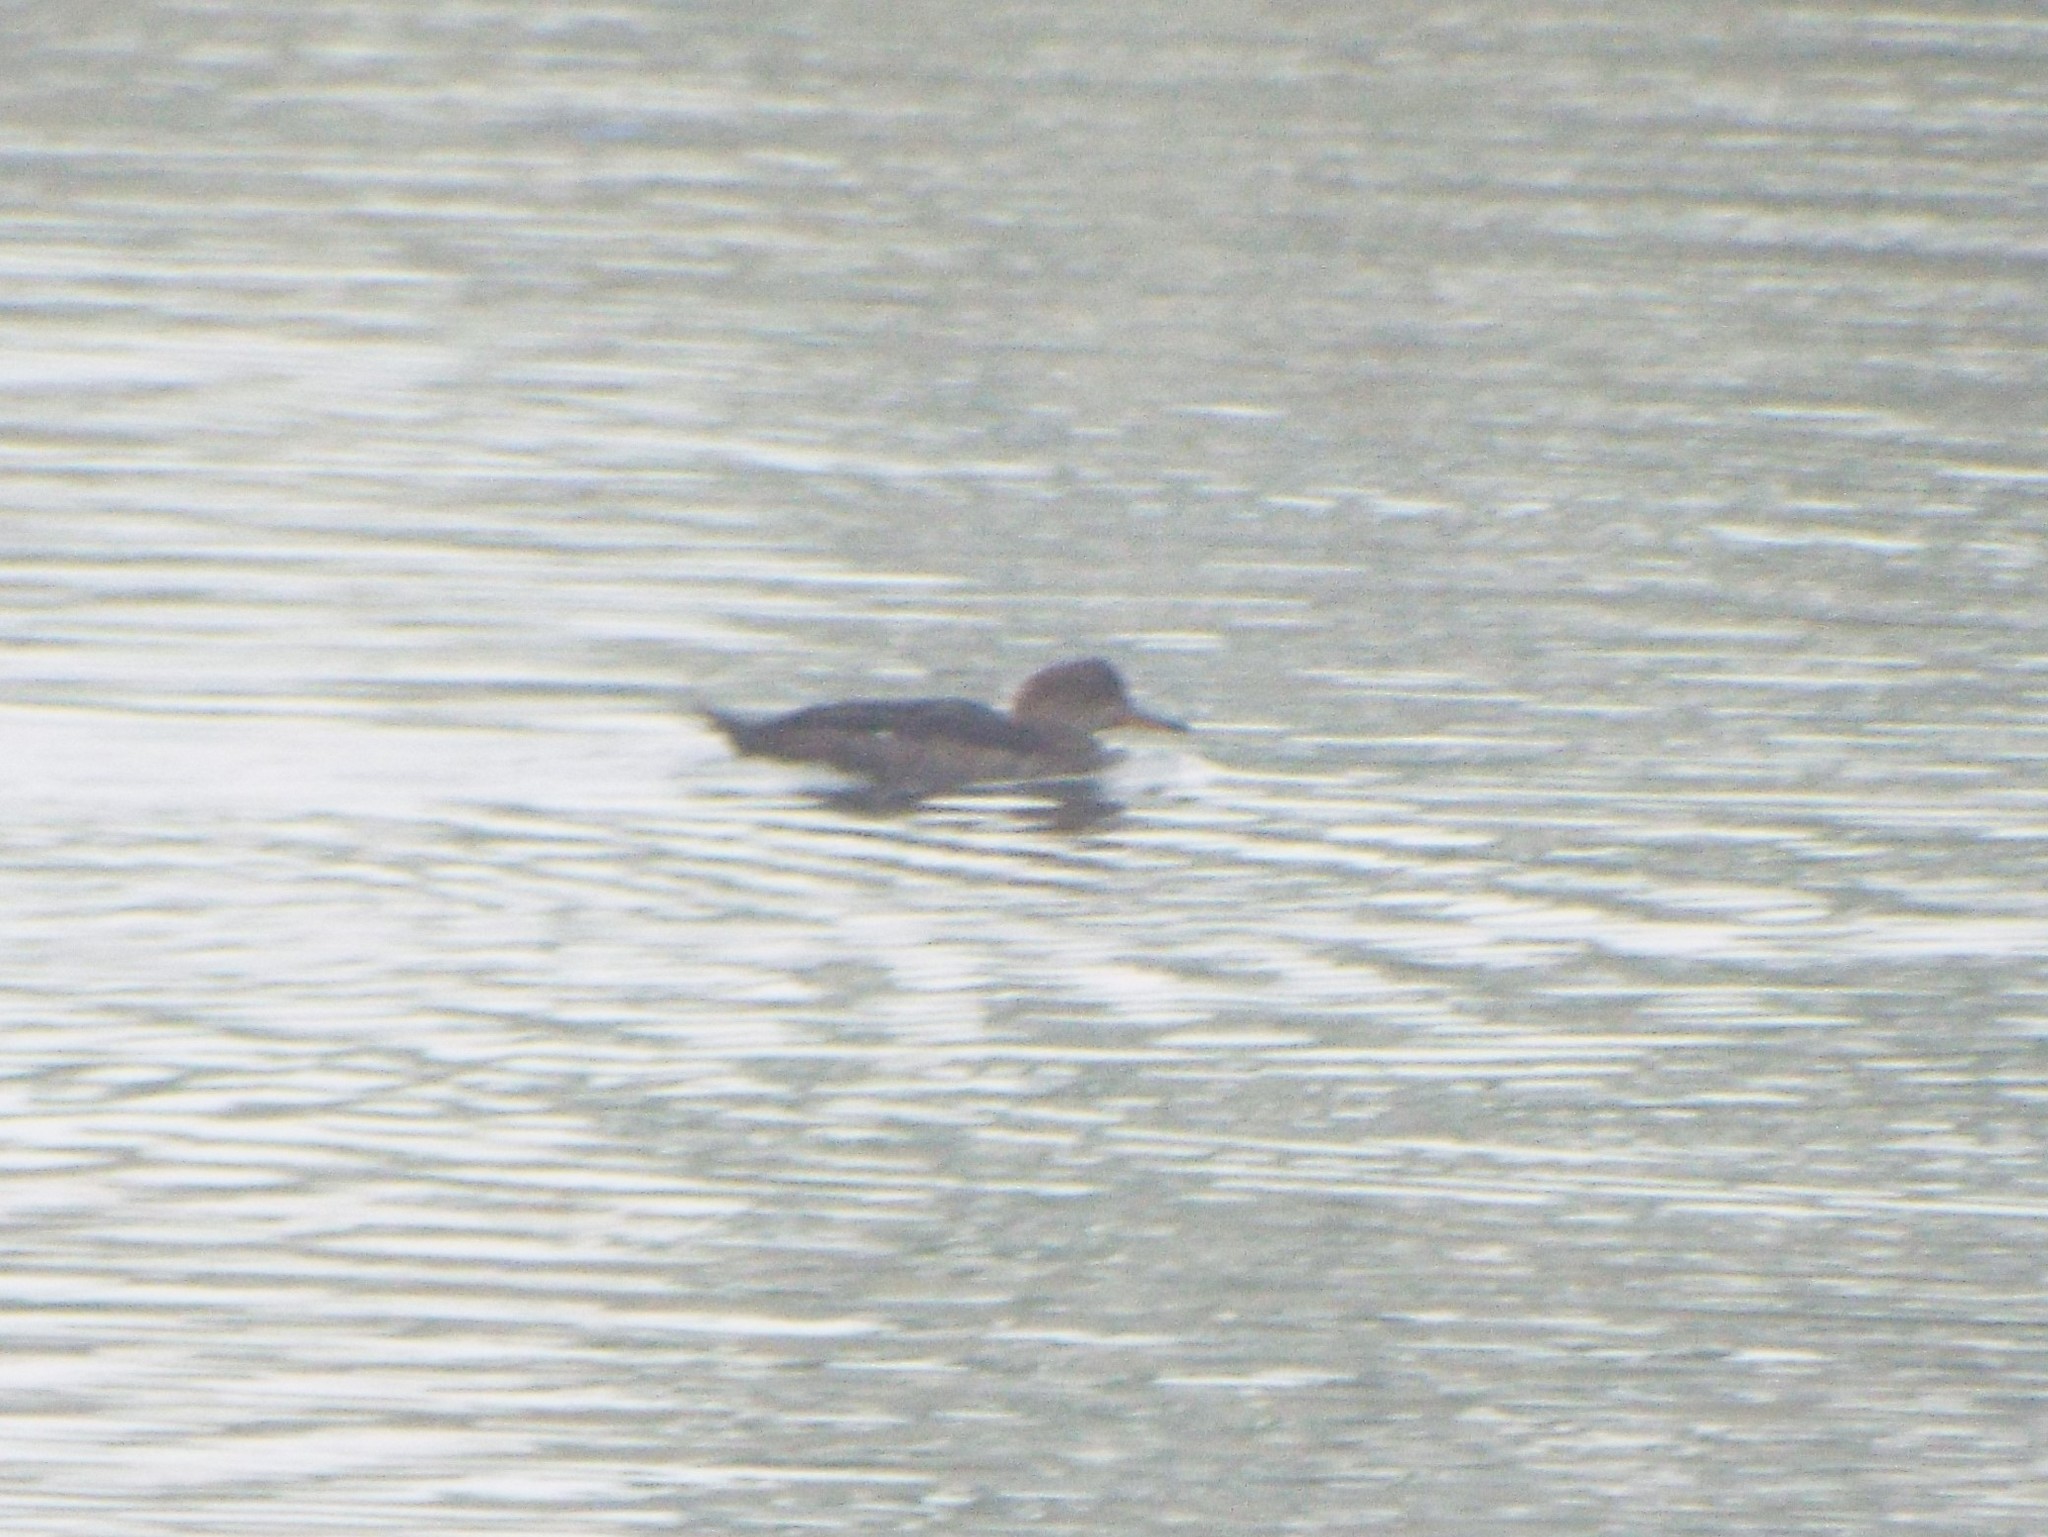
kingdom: Animalia
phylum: Chordata
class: Aves
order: Anseriformes
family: Anatidae
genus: Lophodytes
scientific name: Lophodytes cucullatus
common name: Hooded merganser
